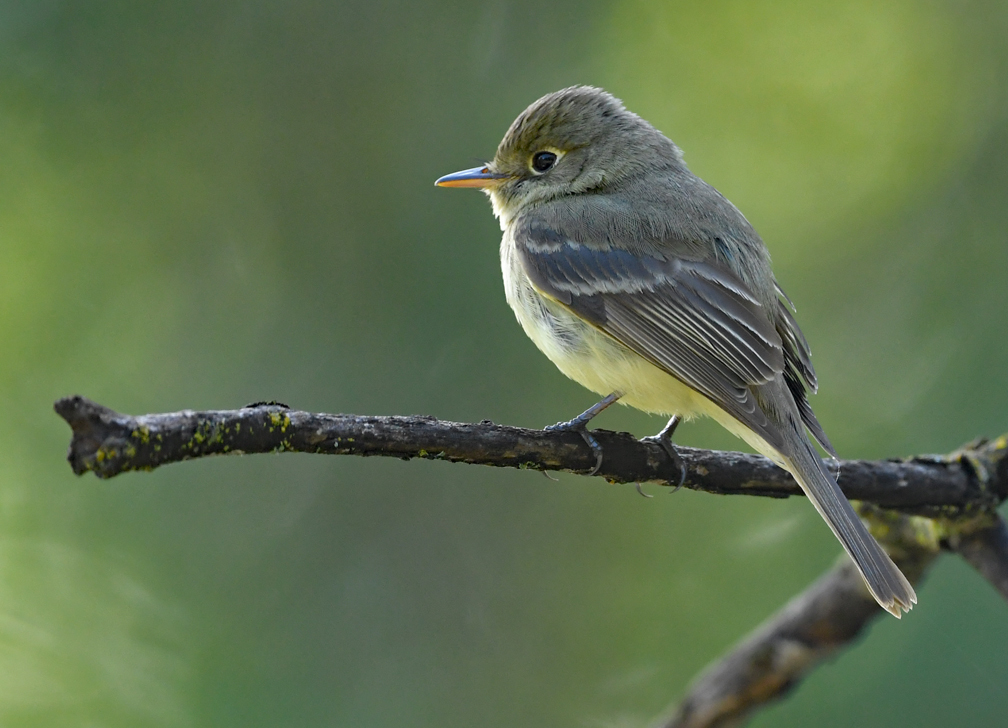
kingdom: Animalia
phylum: Chordata
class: Aves
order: Passeriformes
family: Tyrannidae
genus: Empidonax
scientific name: Empidonax difficilis
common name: Pacific-slope flycatcher
